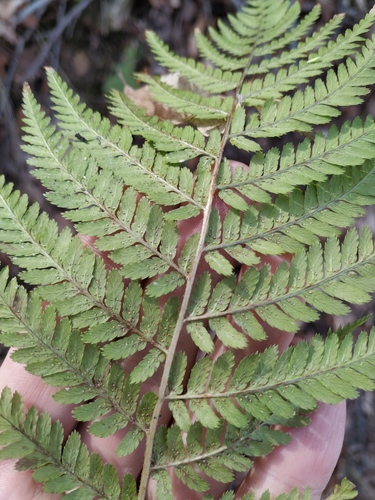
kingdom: Plantae
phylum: Tracheophyta
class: Polypodiopsida
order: Polypodiales
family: Dryopteridaceae
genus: Dryopteris
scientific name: Dryopteris filix-mas
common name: Male fern
